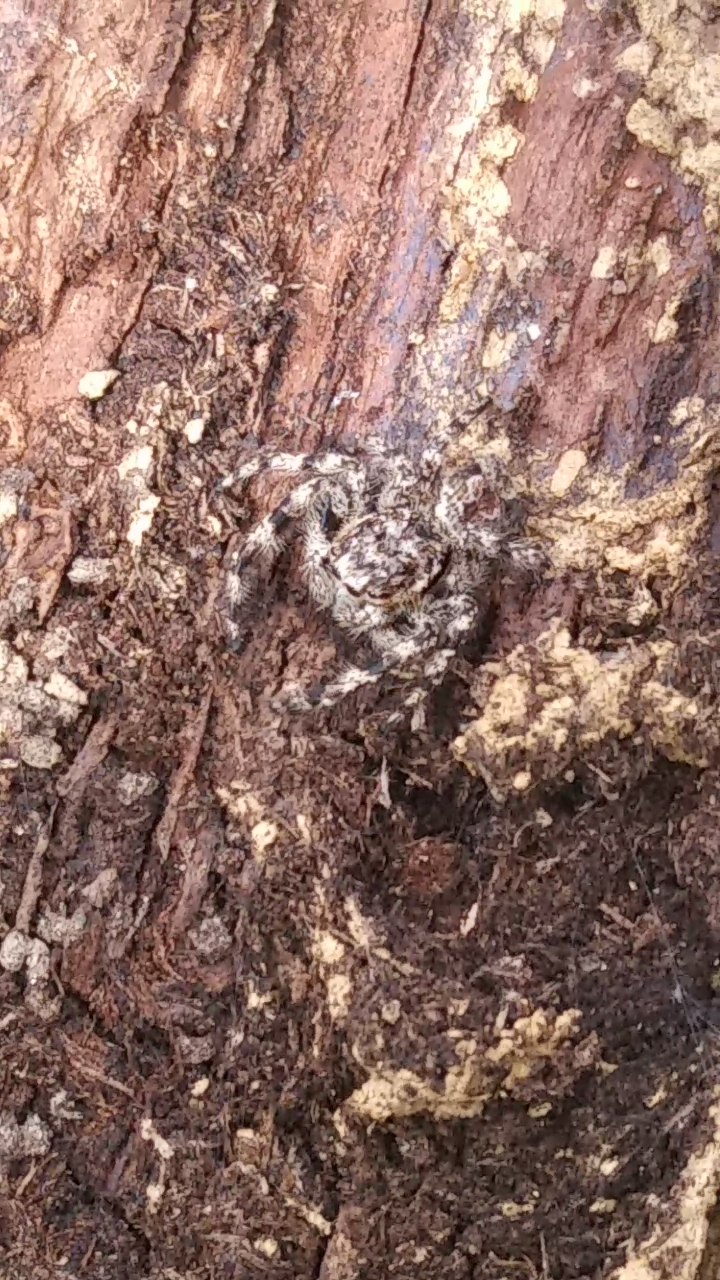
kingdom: Animalia
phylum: Arthropoda
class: Arachnida
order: Araneae
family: Salticidae
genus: Platycryptus
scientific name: Platycryptus undatus
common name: Tan jumping spider
